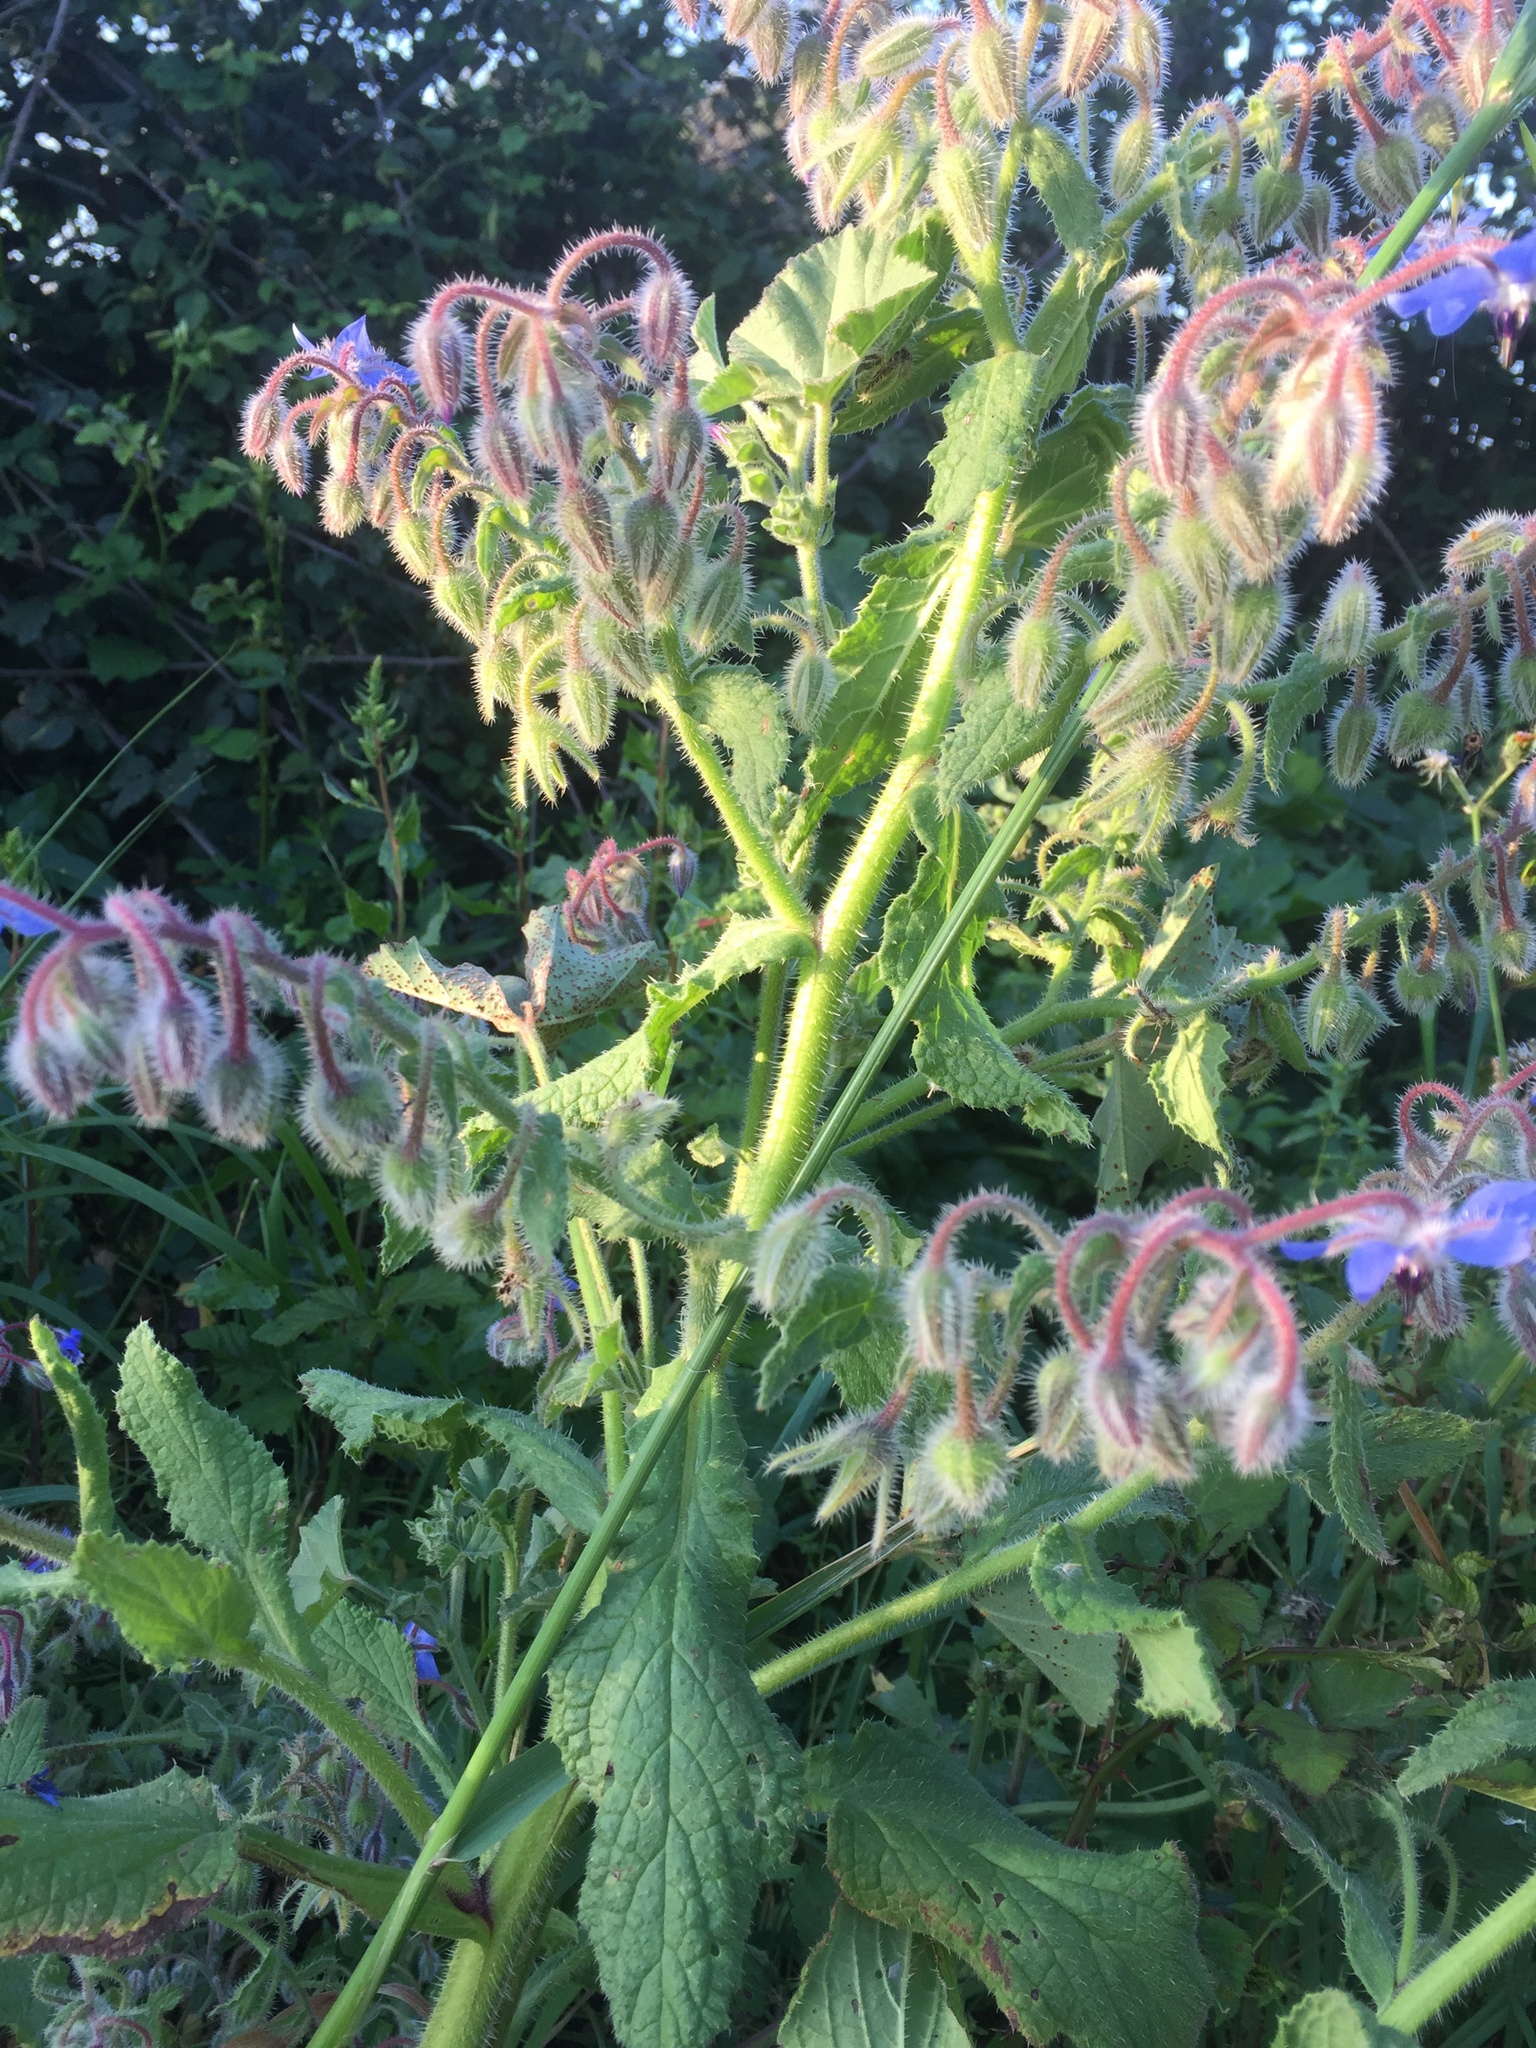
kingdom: Plantae
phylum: Tracheophyta
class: Magnoliopsida
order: Boraginales
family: Boraginaceae
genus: Borago
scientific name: Borago officinalis
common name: Borage
